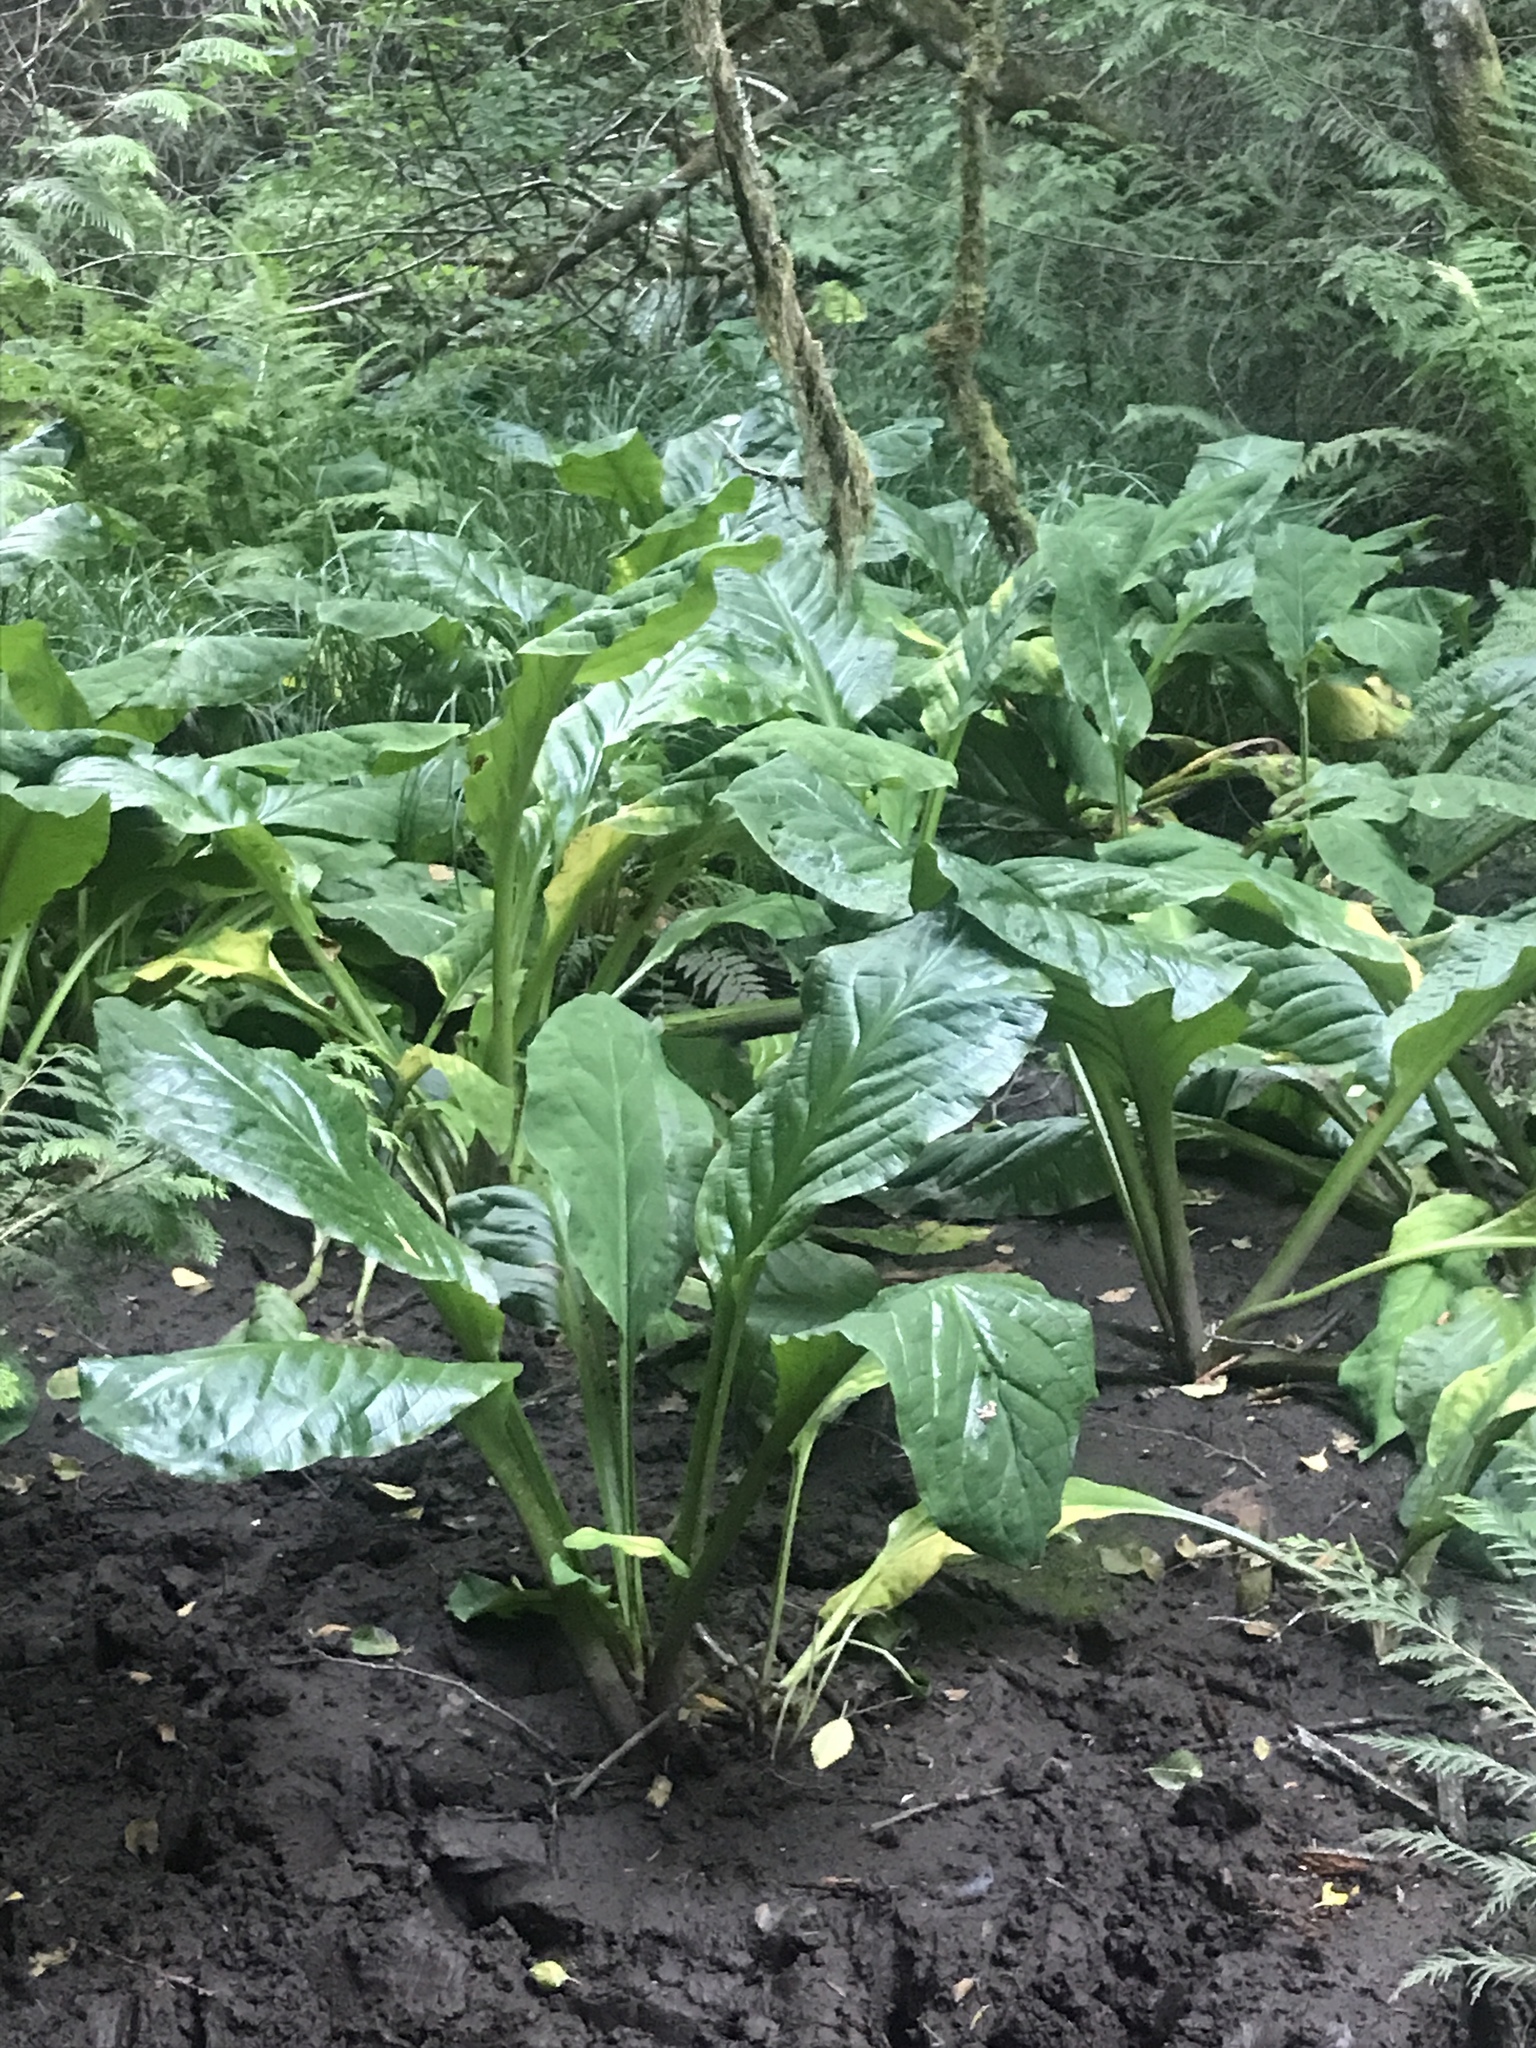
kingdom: Plantae
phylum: Tracheophyta
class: Liliopsida
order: Alismatales
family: Araceae
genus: Lysichiton
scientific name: Lysichiton americanus
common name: American skunk cabbage
